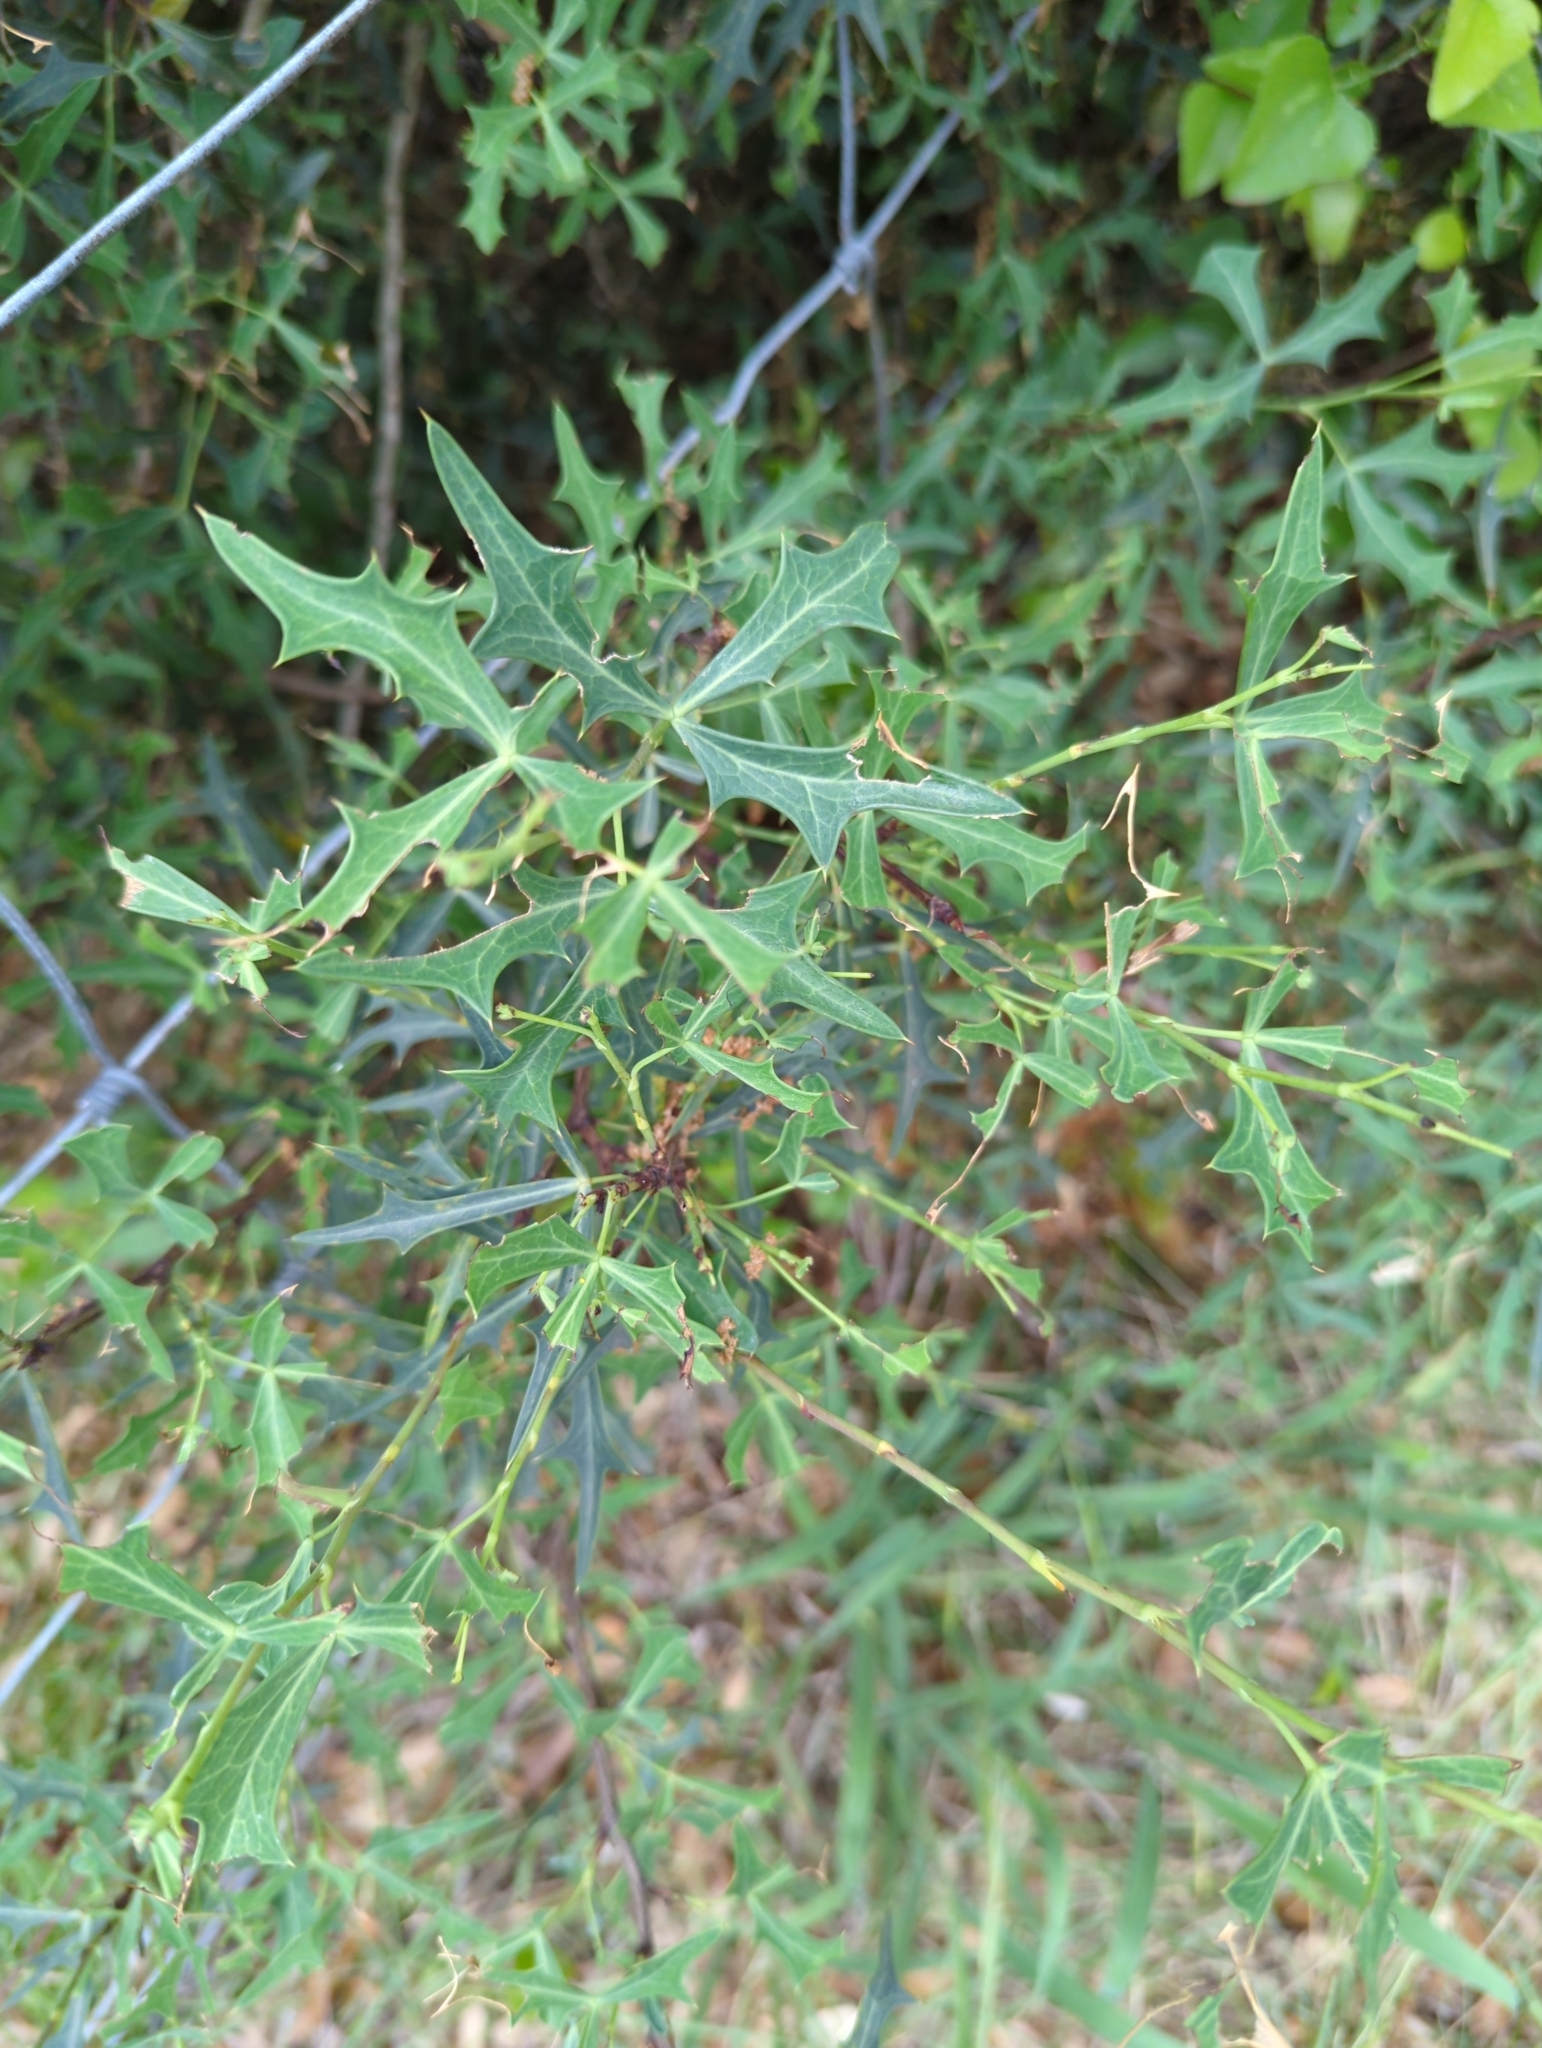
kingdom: Plantae
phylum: Tracheophyta
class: Magnoliopsida
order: Ranunculales
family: Berberidaceae
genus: Alloberberis
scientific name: Alloberberis trifoliolata
